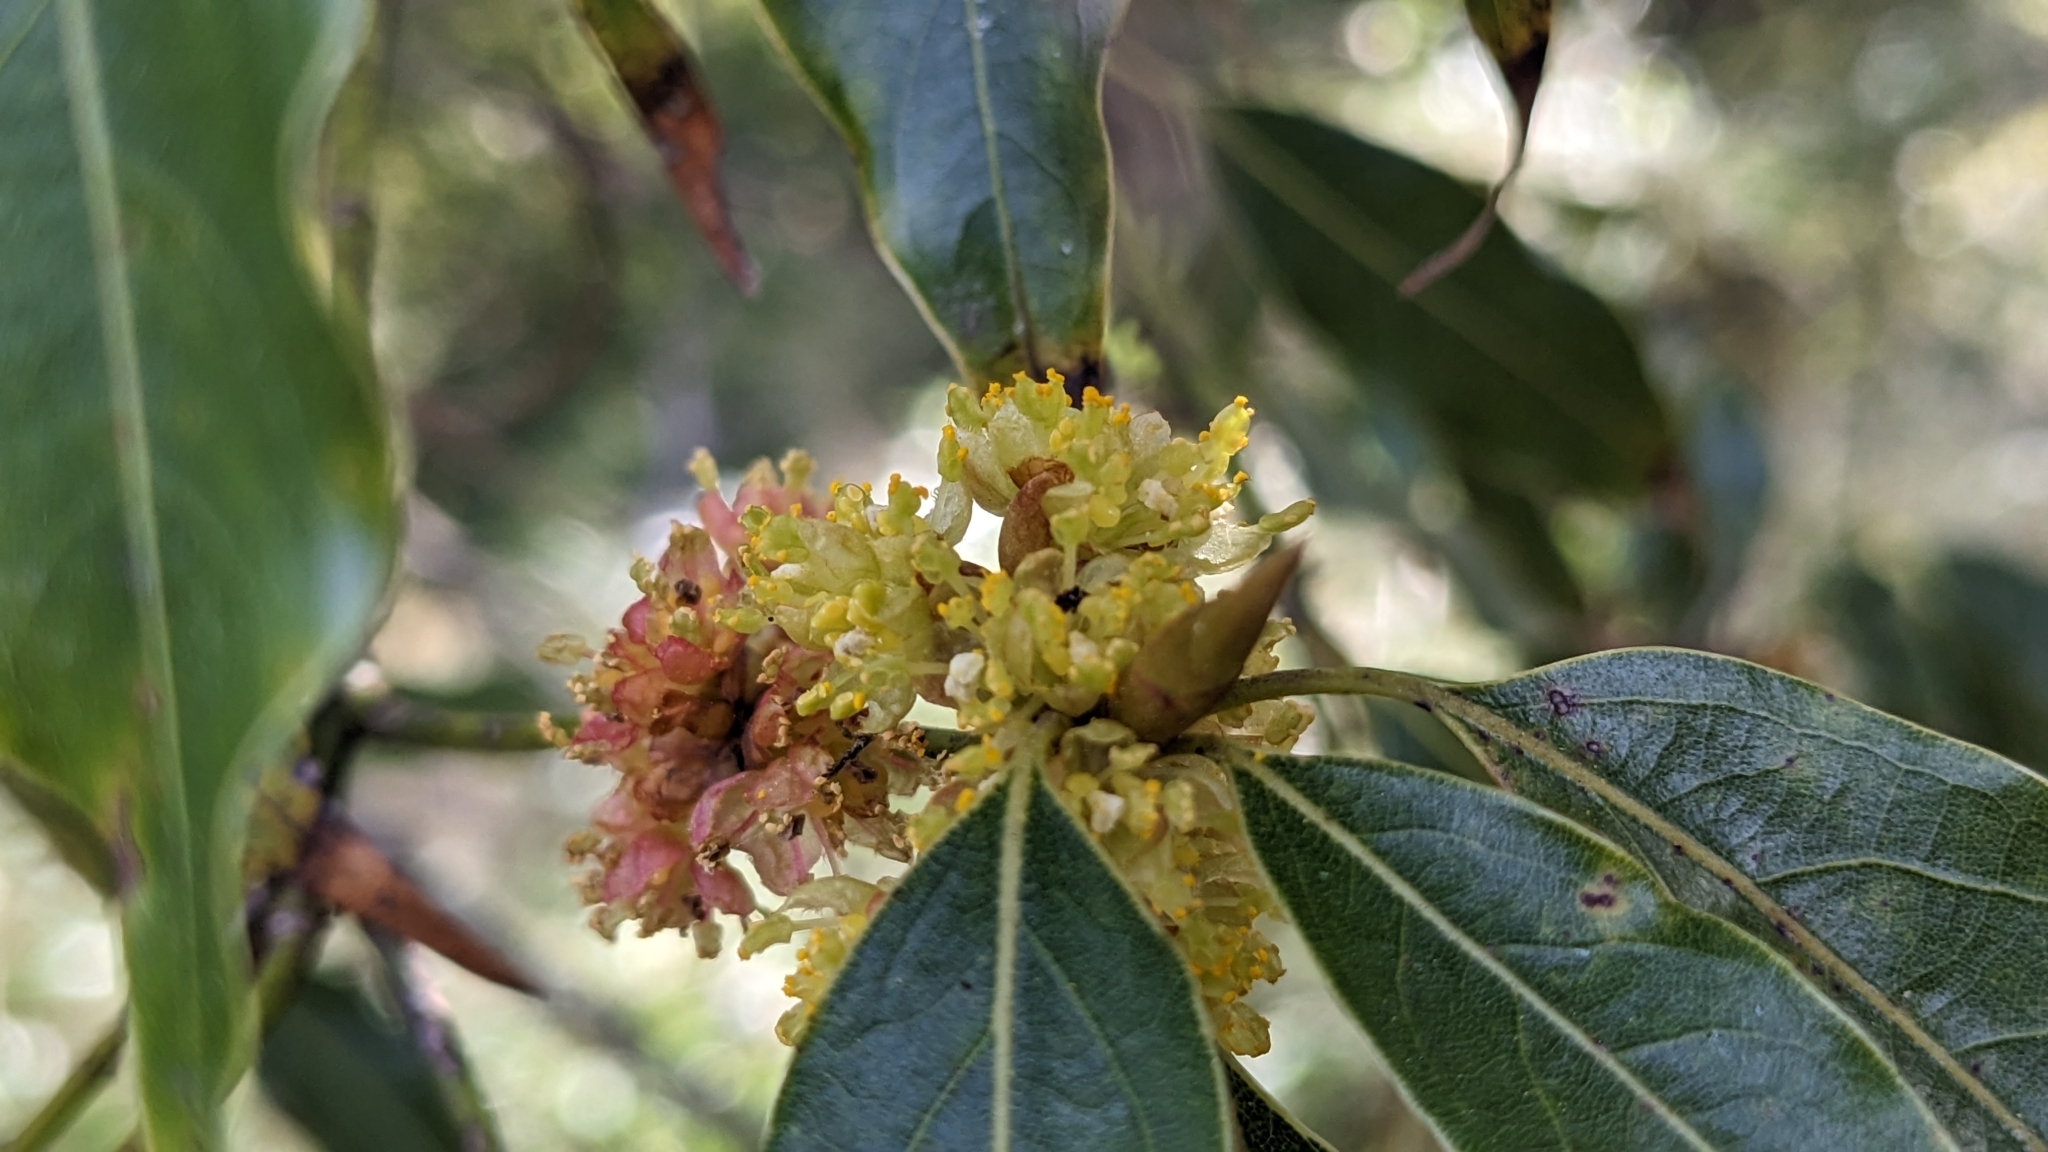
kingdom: Plantae
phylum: Tracheophyta
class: Magnoliopsida
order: Laurales
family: Lauraceae
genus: Neolitsea
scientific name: Neolitsea acuminatissima
